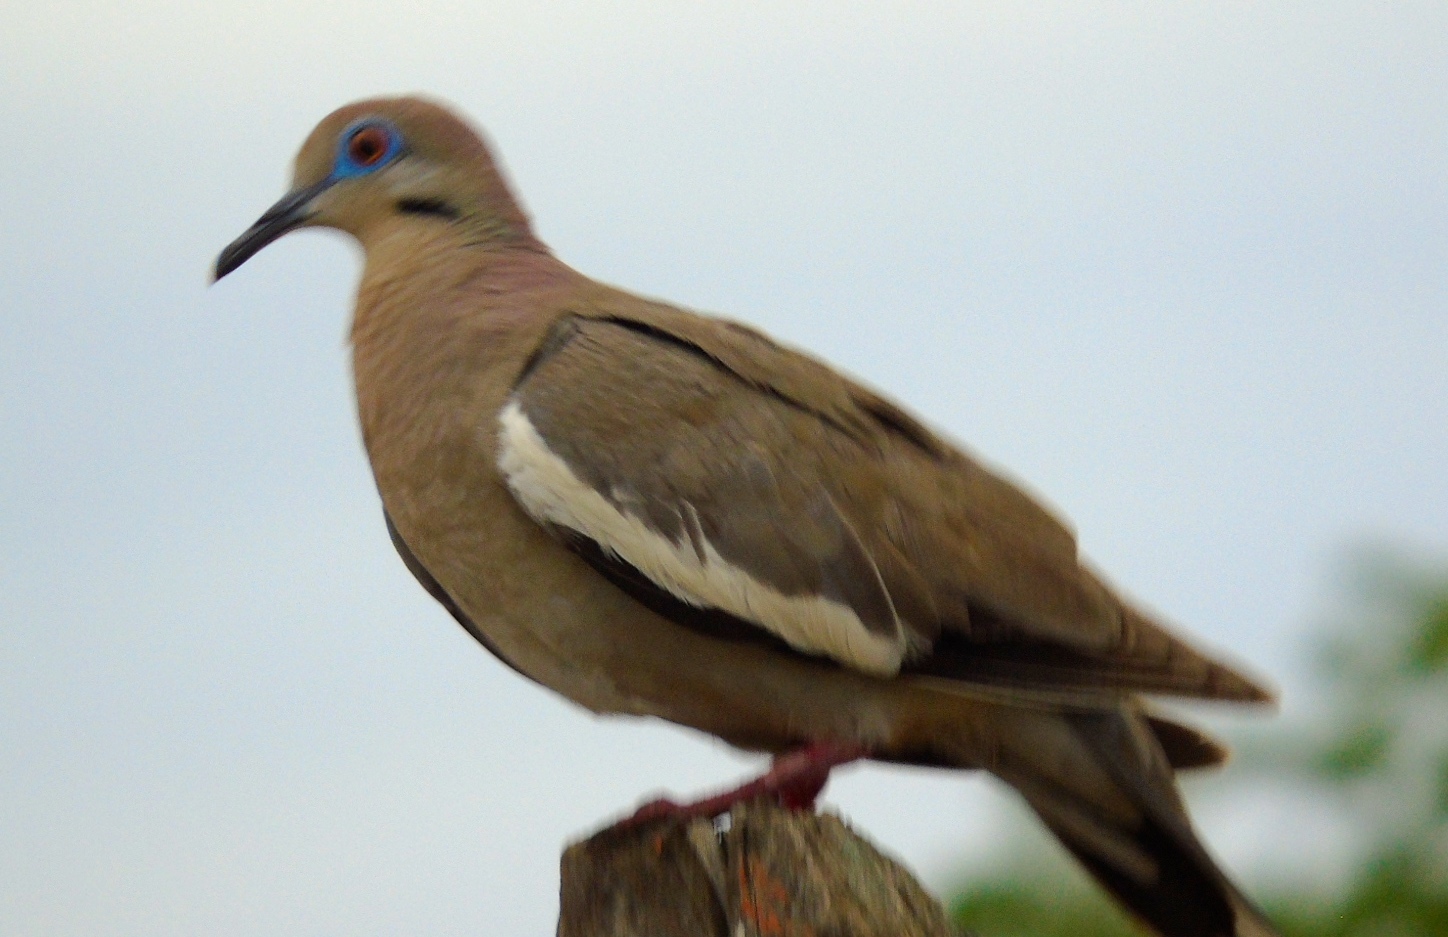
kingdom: Animalia
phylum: Chordata
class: Aves
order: Columbiformes
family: Columbidae
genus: Zenaida
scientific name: Zenaida asiatica
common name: White-winged dove
